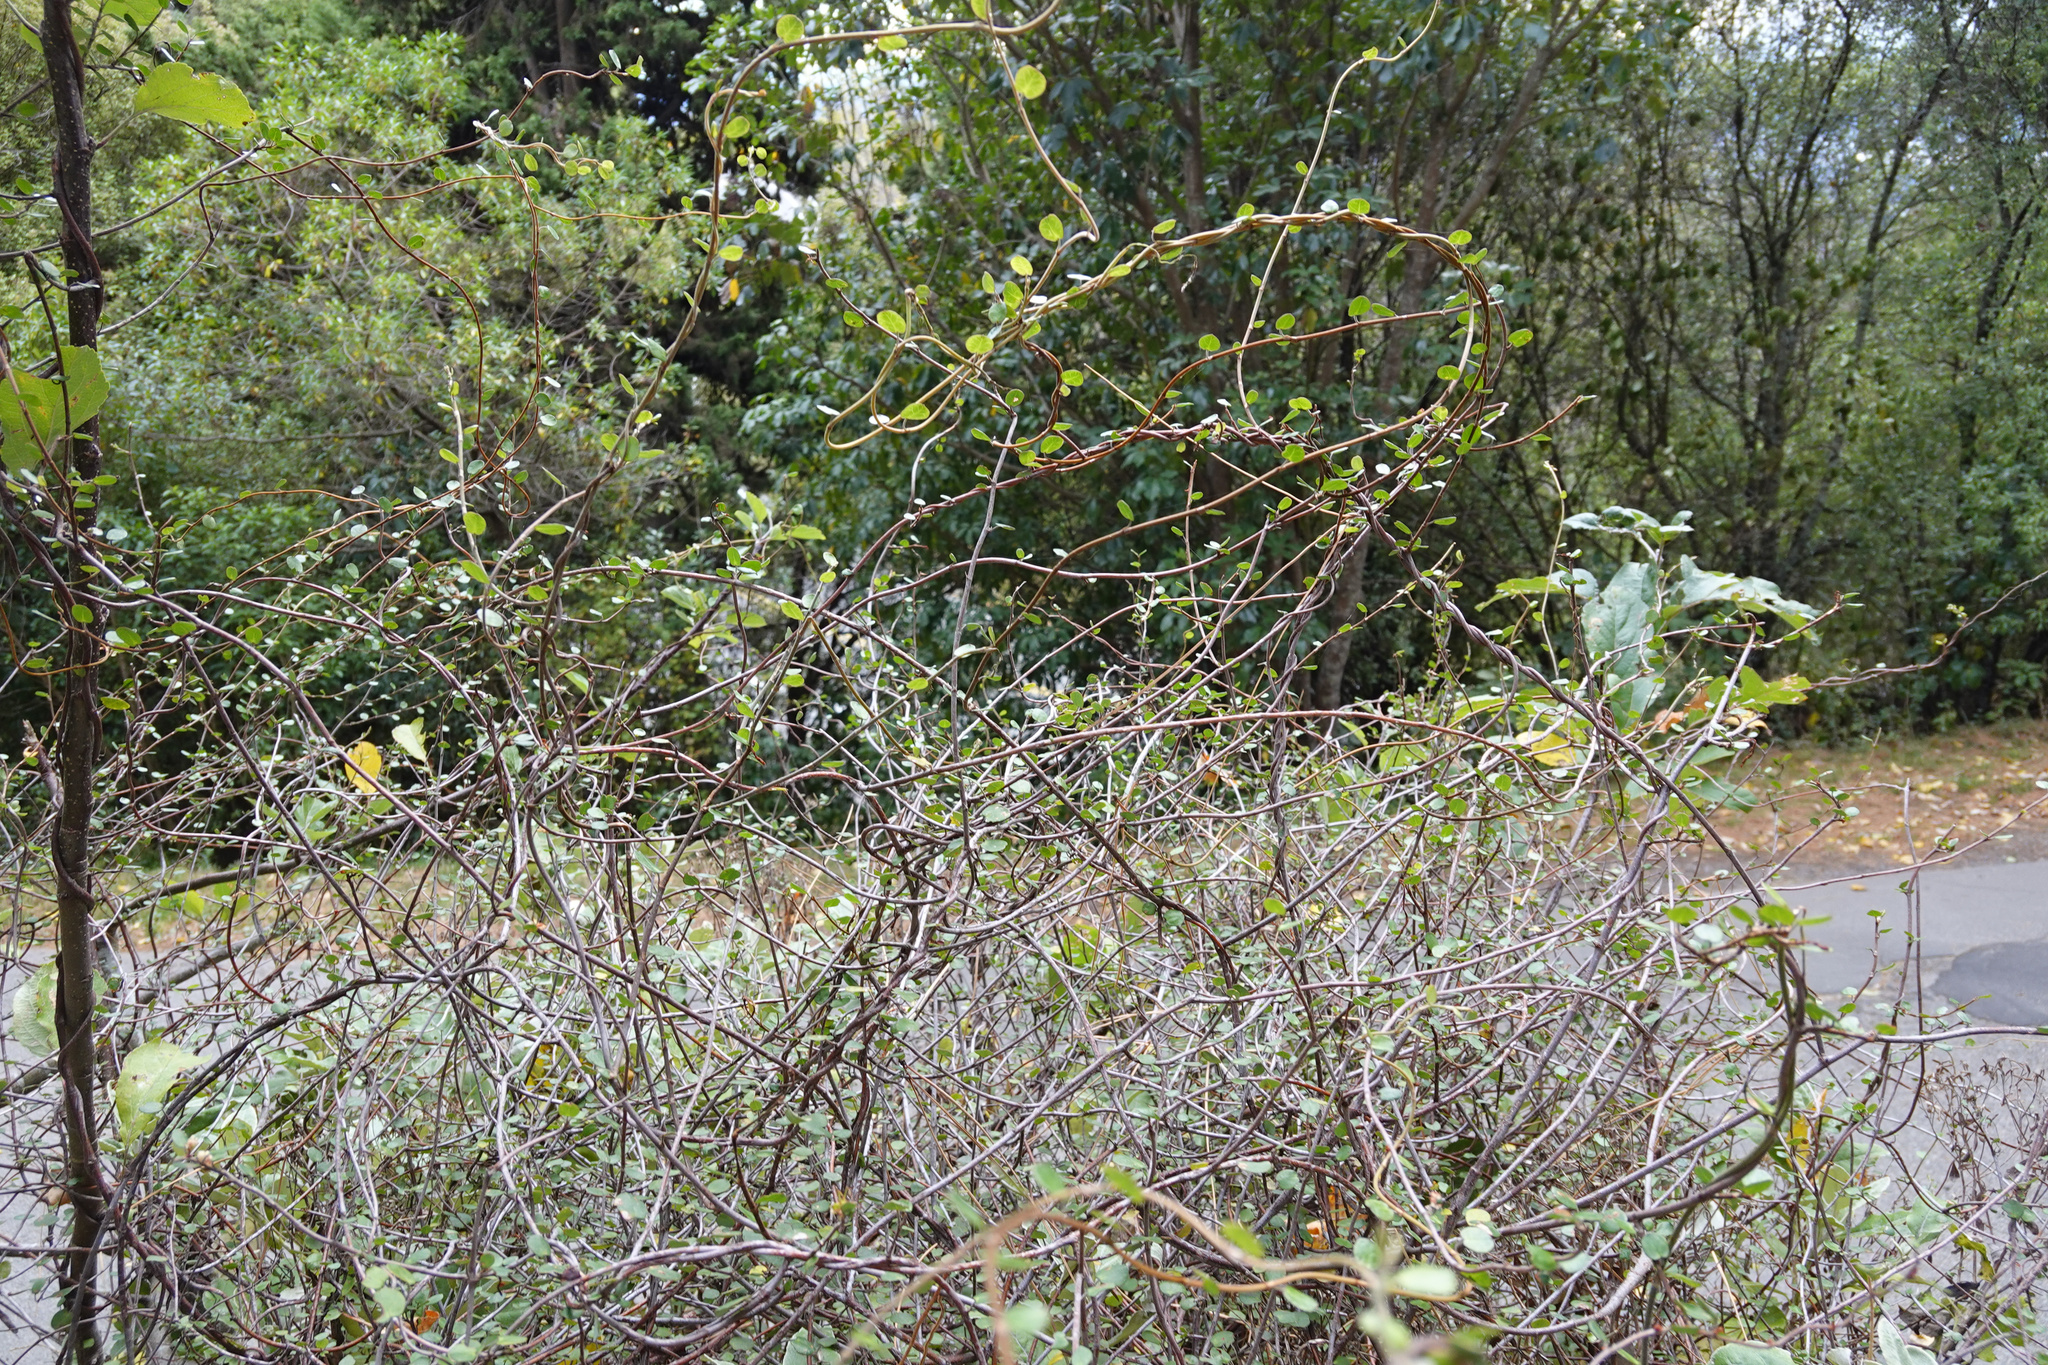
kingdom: Plantae
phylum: Tracheophyta
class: Magnoliopsida
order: Caryophyllales
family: Polygonaceae
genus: Muehlenbeckia
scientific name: Muehlenbeckia complexa
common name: Wireplant
